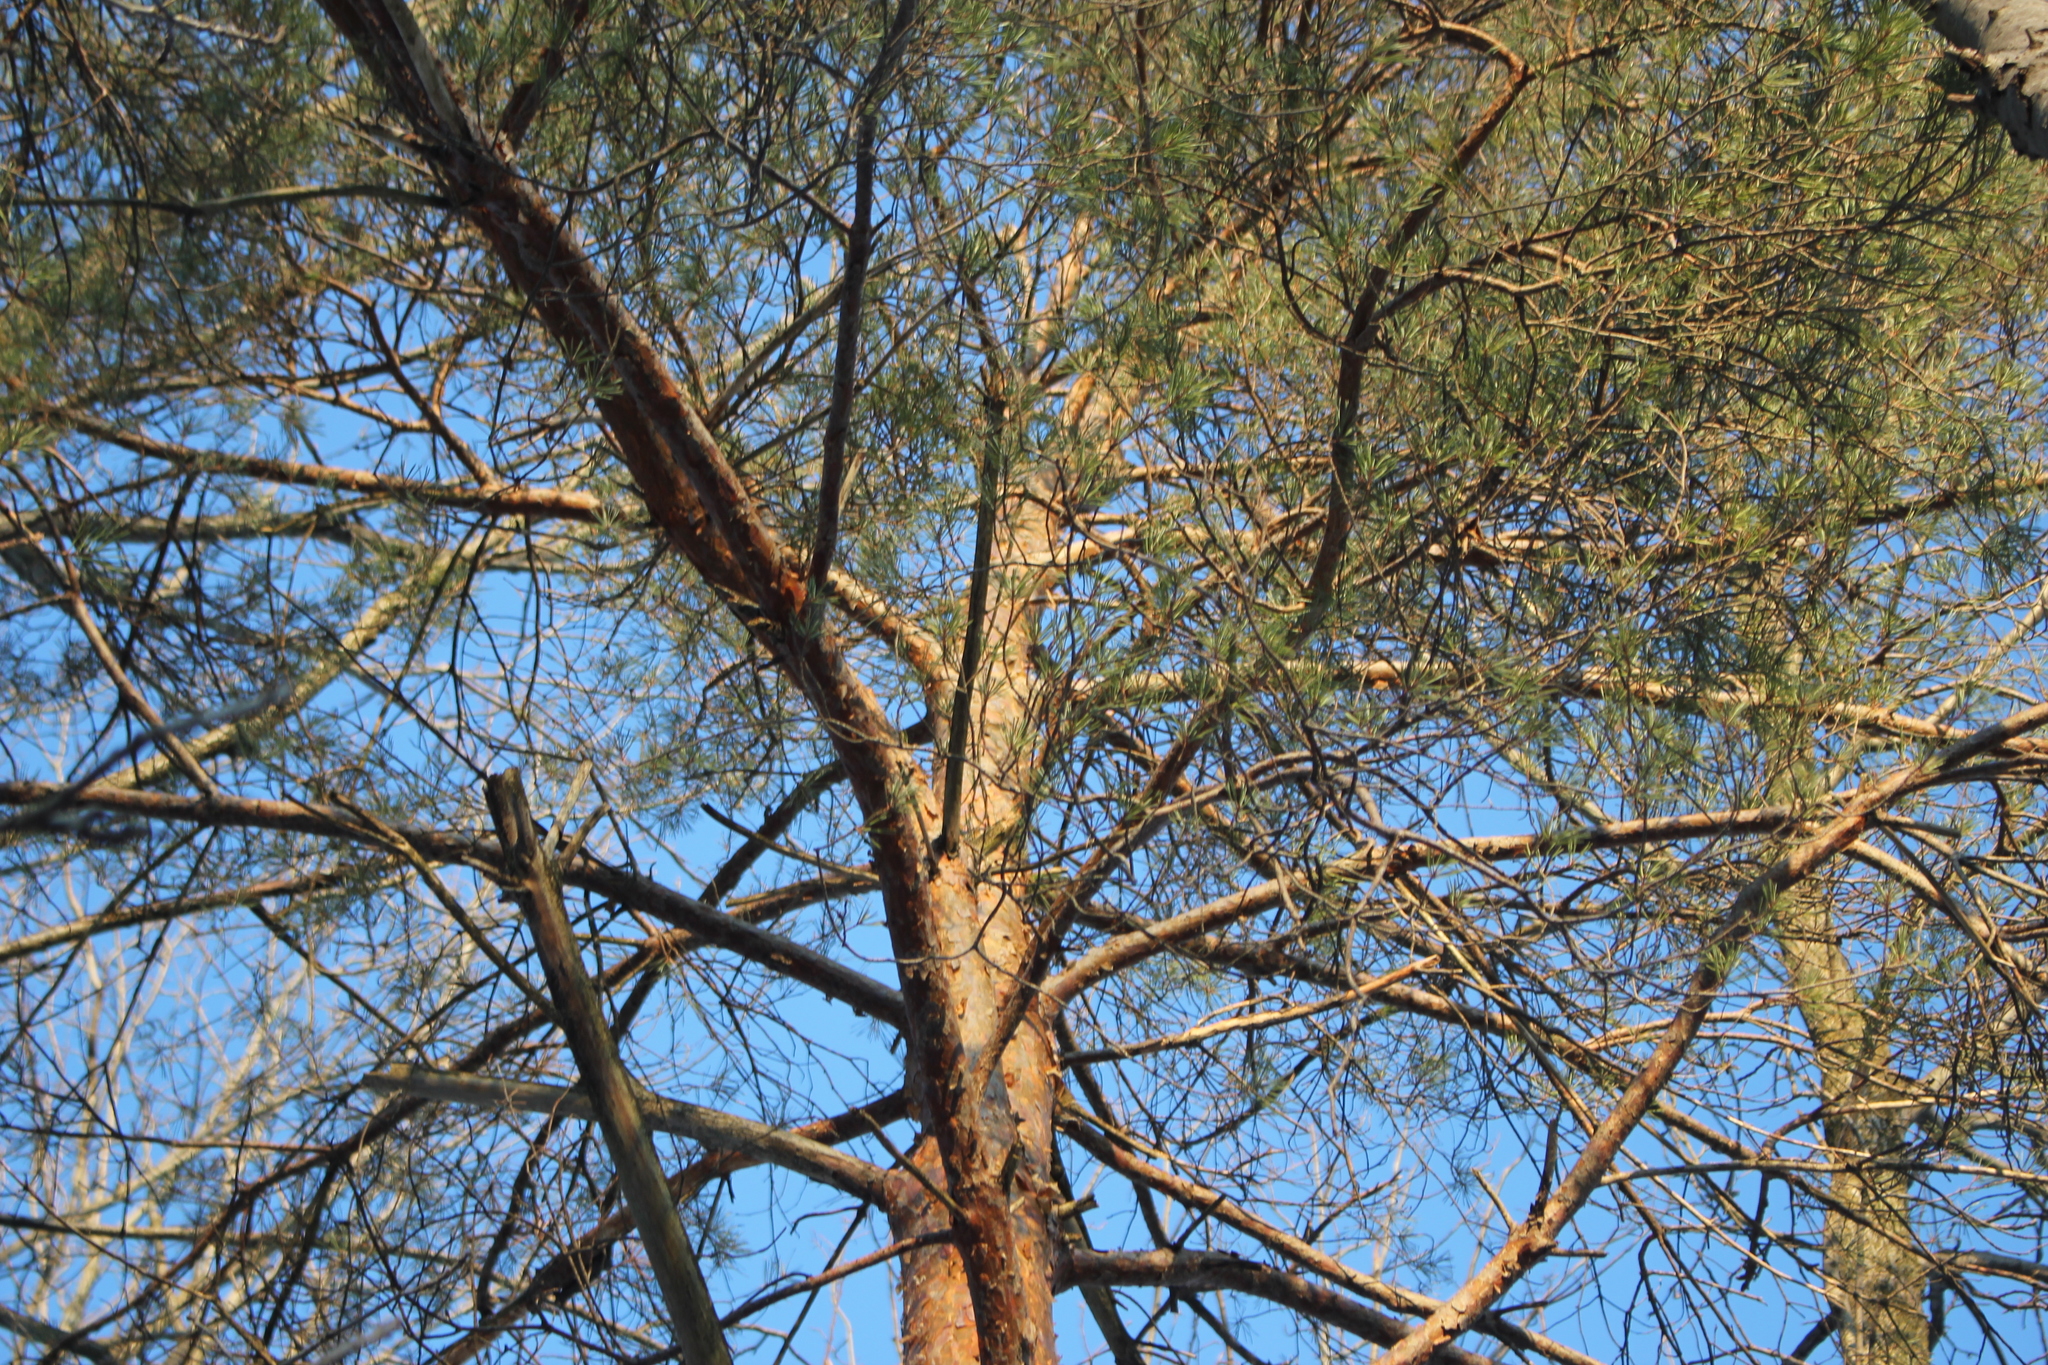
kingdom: Plantae
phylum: Tracheophyta
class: Pinopsida
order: Pinales
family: Pinaceae
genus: Pinus
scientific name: Pinus sylvestris
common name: Scots pine
